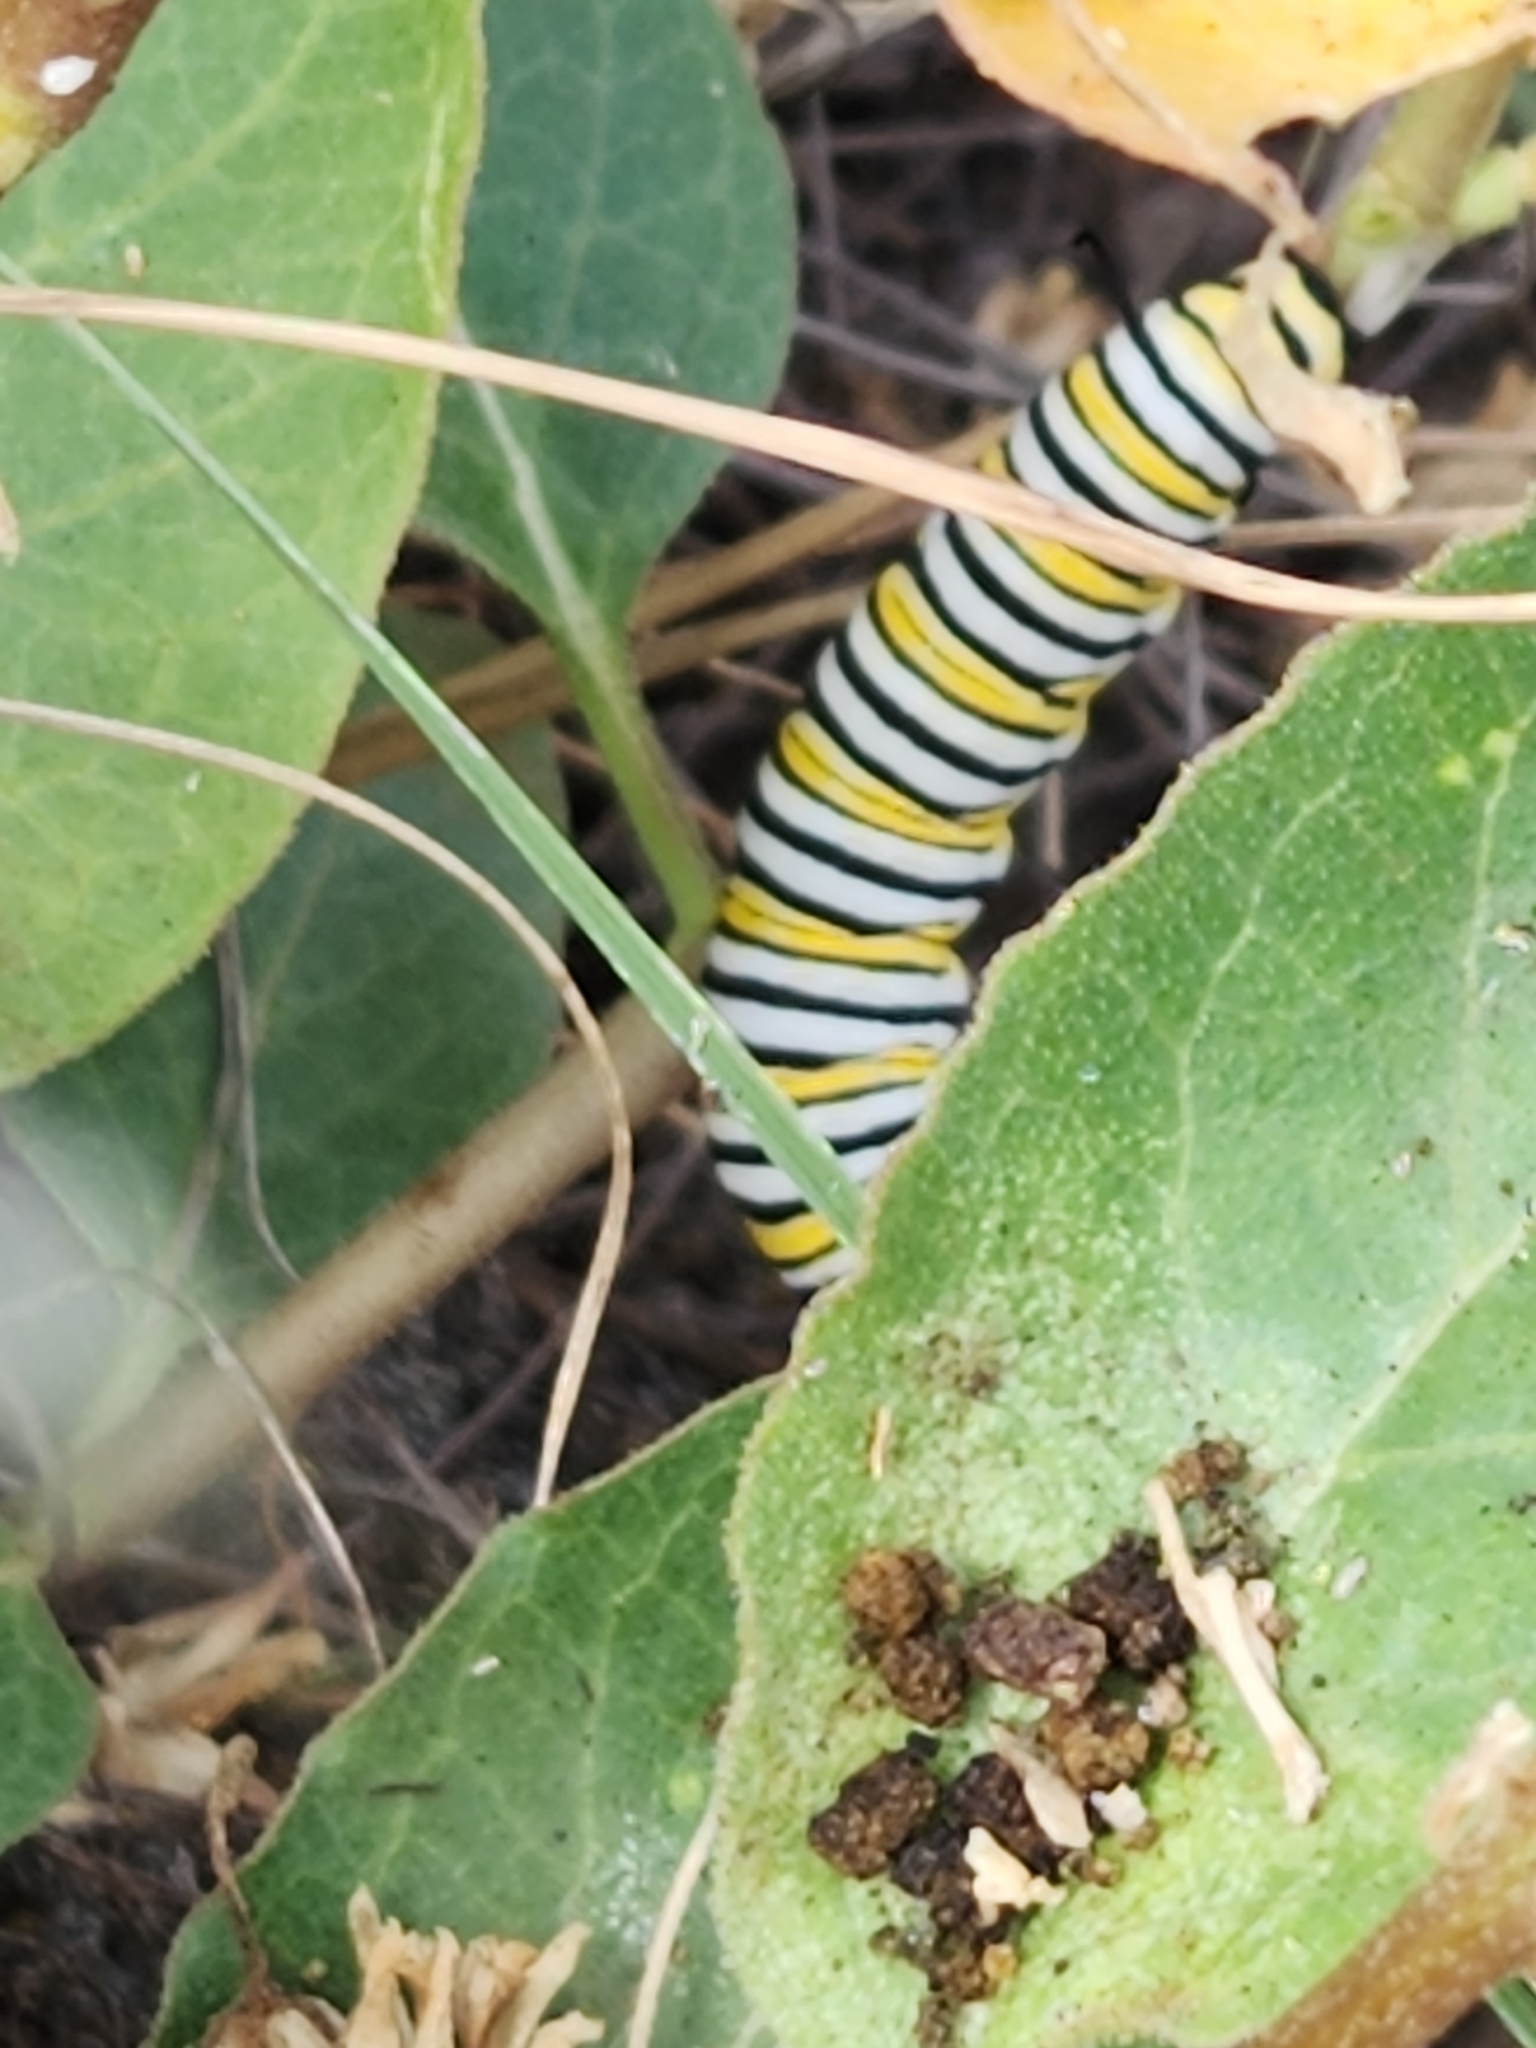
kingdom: Animalia
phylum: Arthropoda
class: Insecta
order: Lepidoptera
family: Nymphalidae
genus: Danaus
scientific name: Danaus plexippus
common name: Monarch
